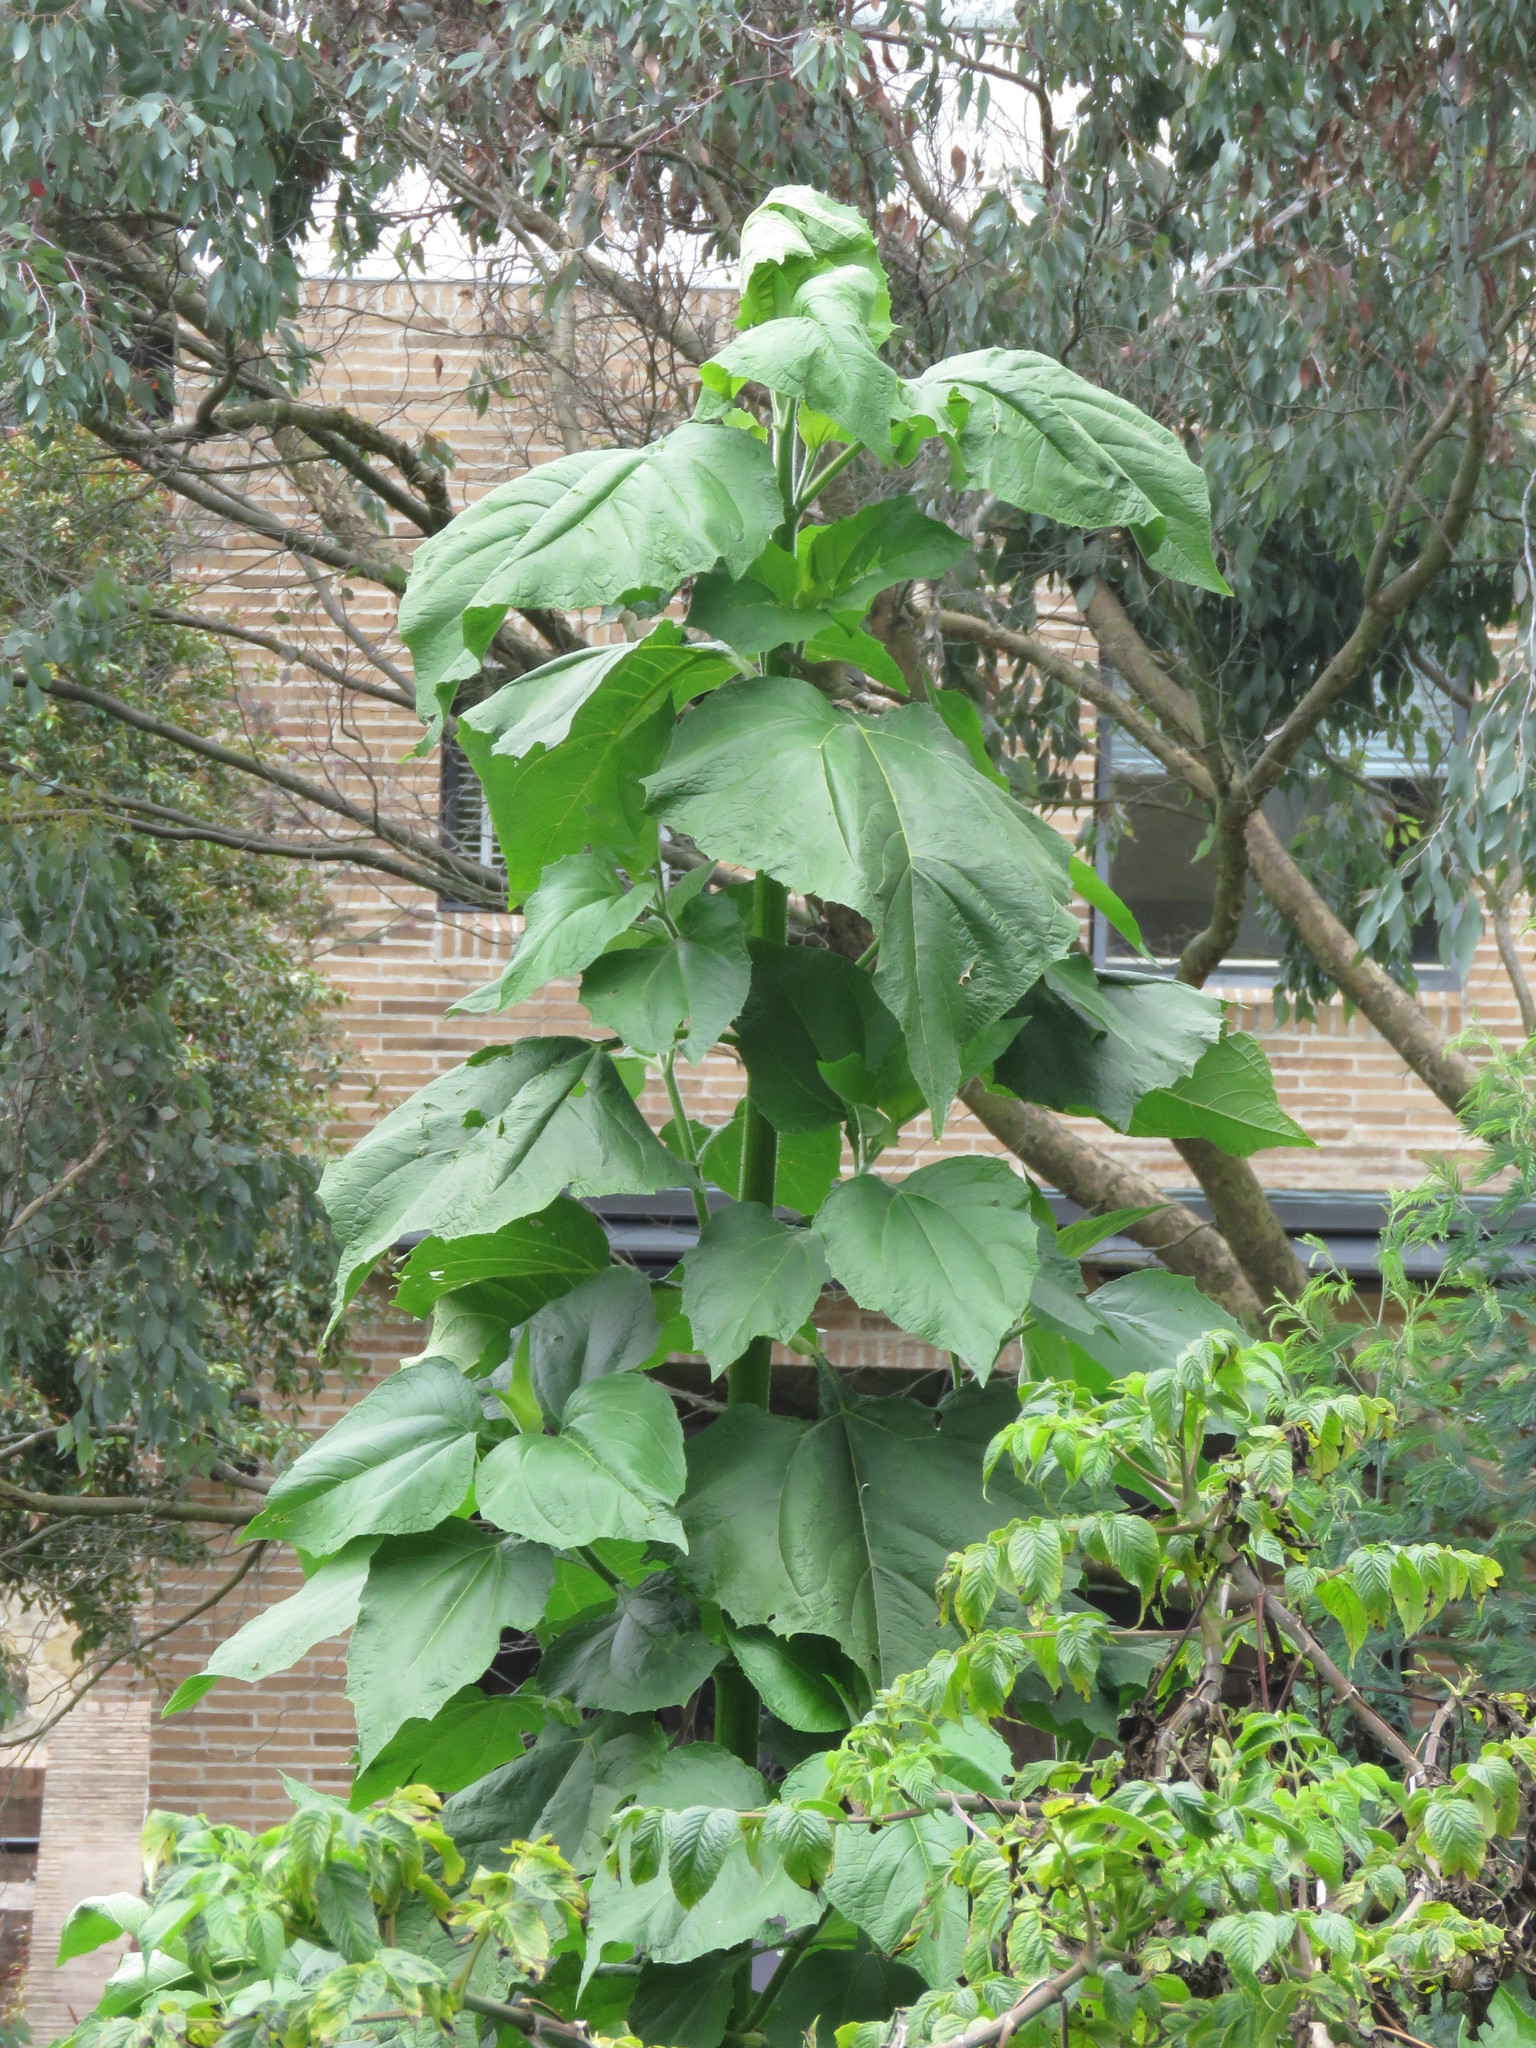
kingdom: Plantae
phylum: Tracheophyta
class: Magnoliopsida
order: Asterales
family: Asteraceae
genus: Smallanthus
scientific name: Smallanthus pyramidalis
